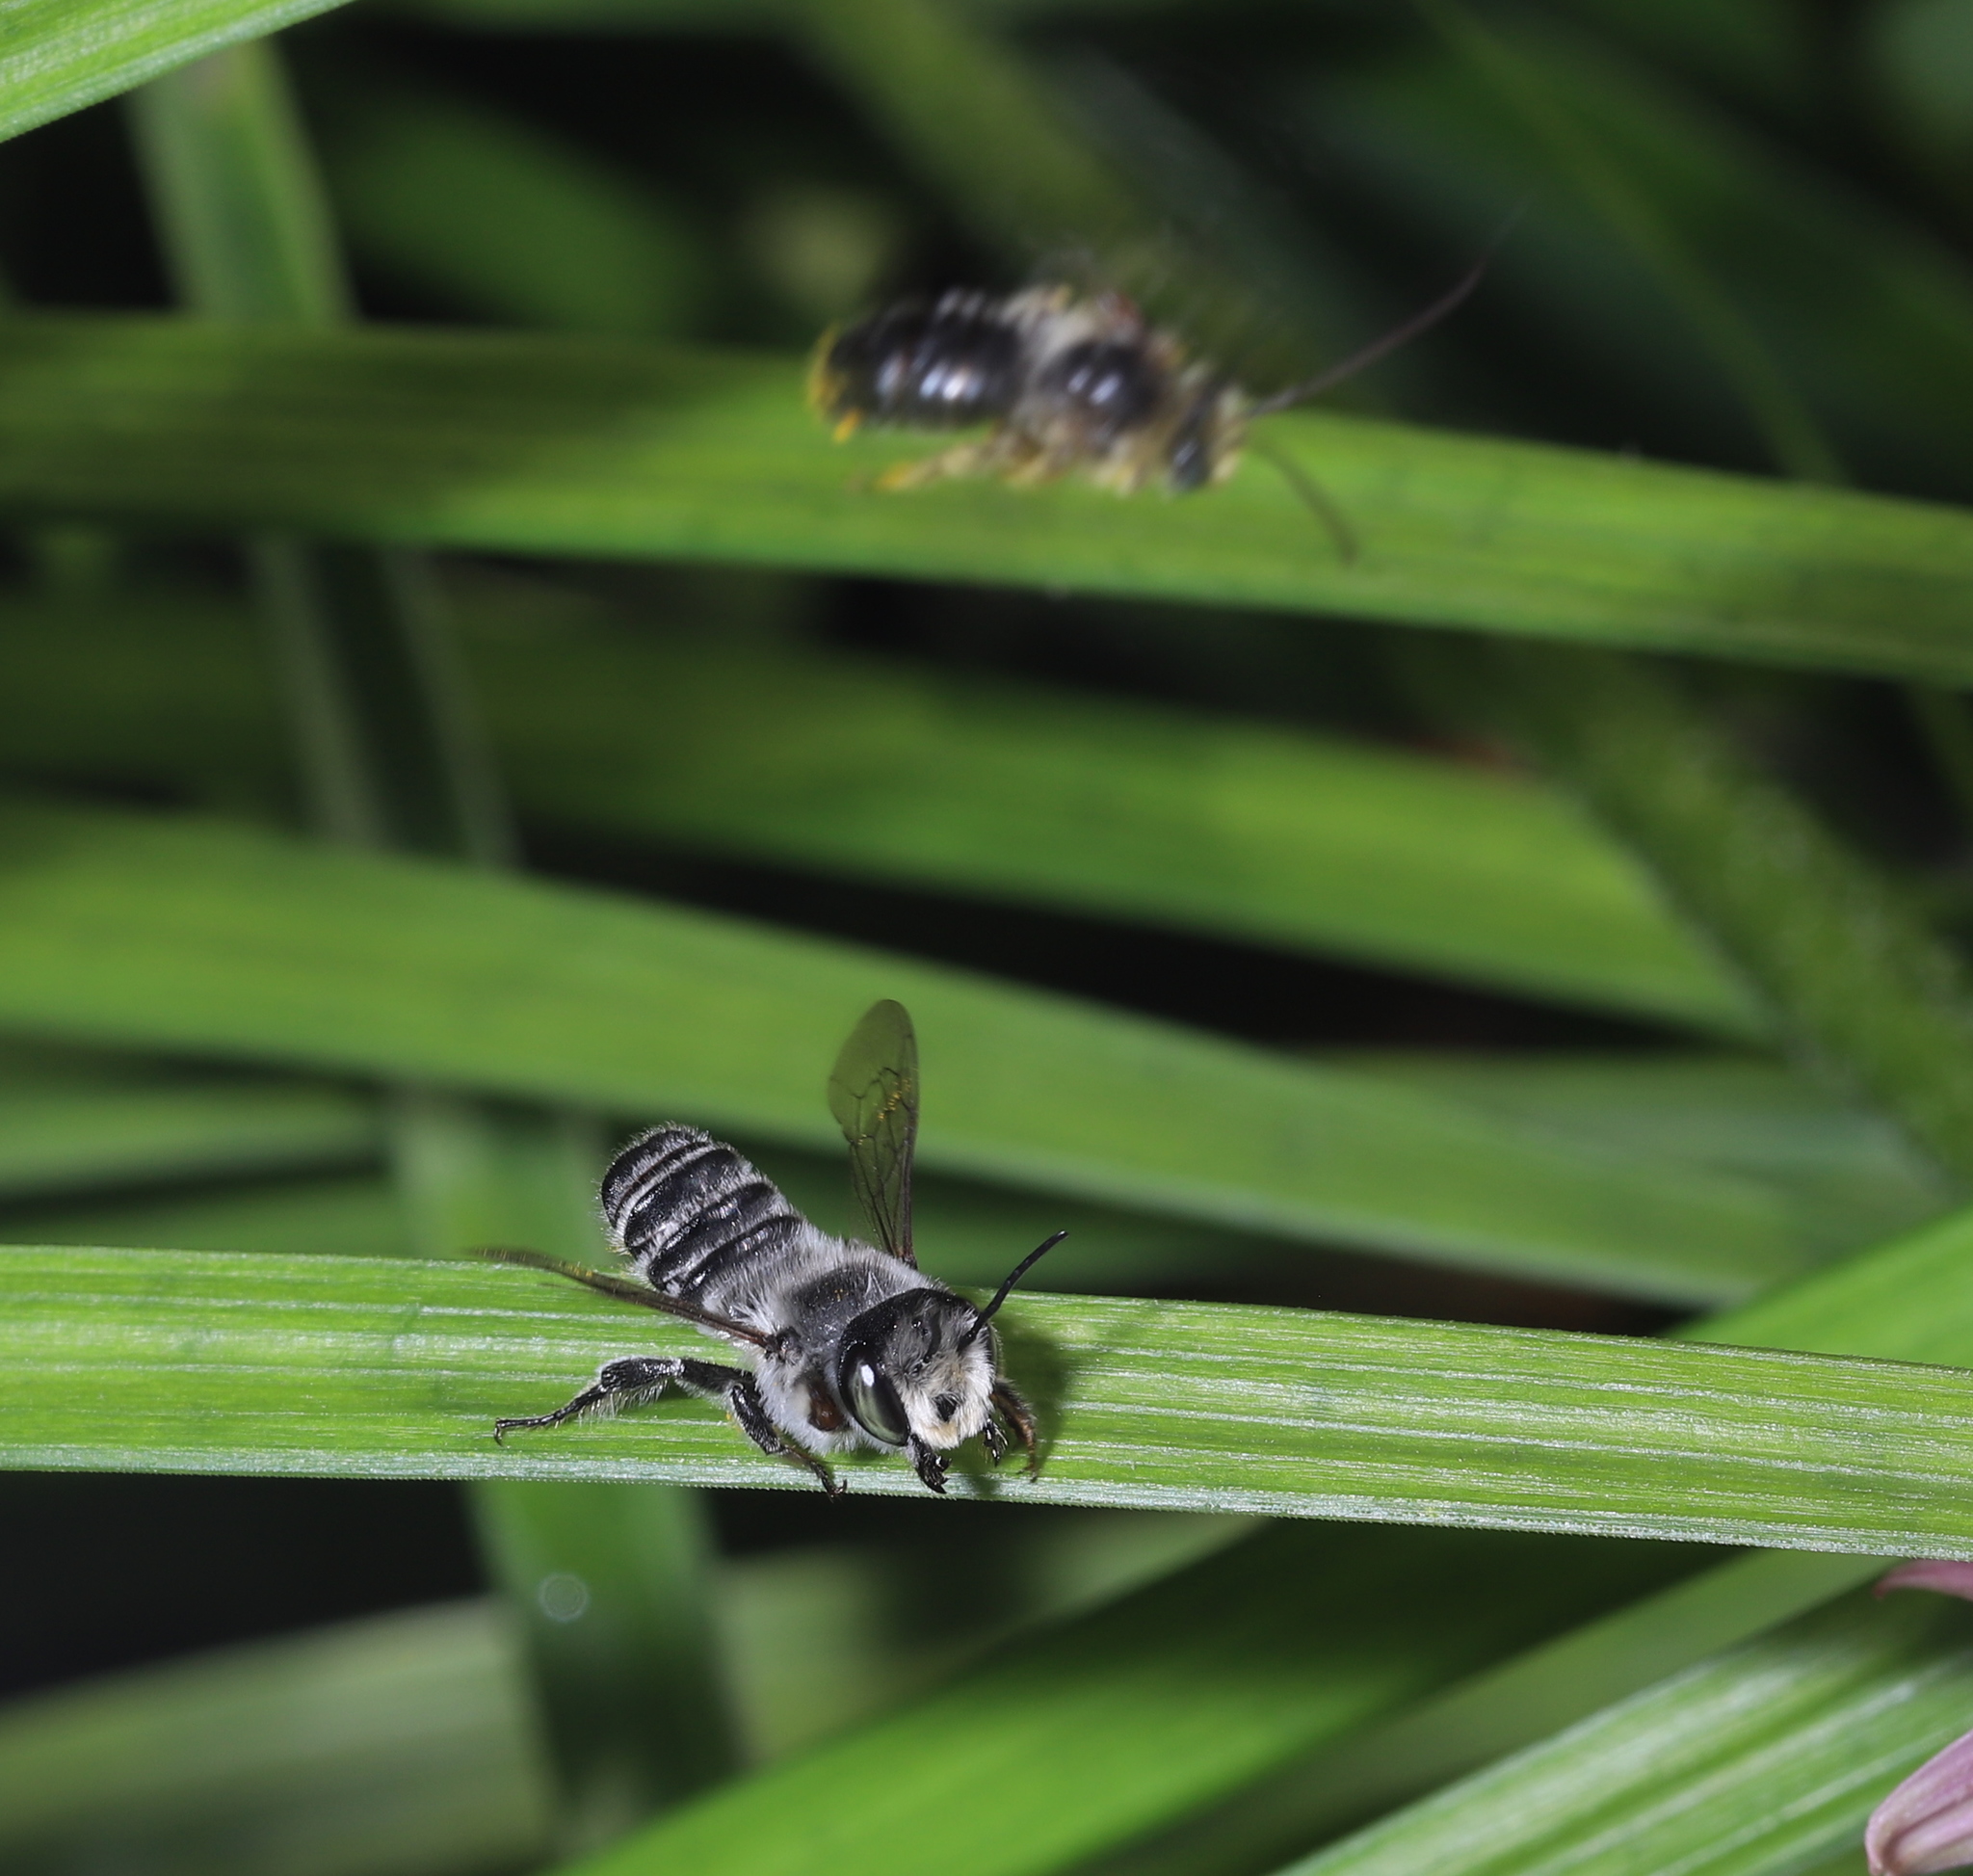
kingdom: Animalia
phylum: Arthropoda
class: Insecta
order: Hymenoptera
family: Megachilidae
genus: Megachile
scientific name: Megachile
